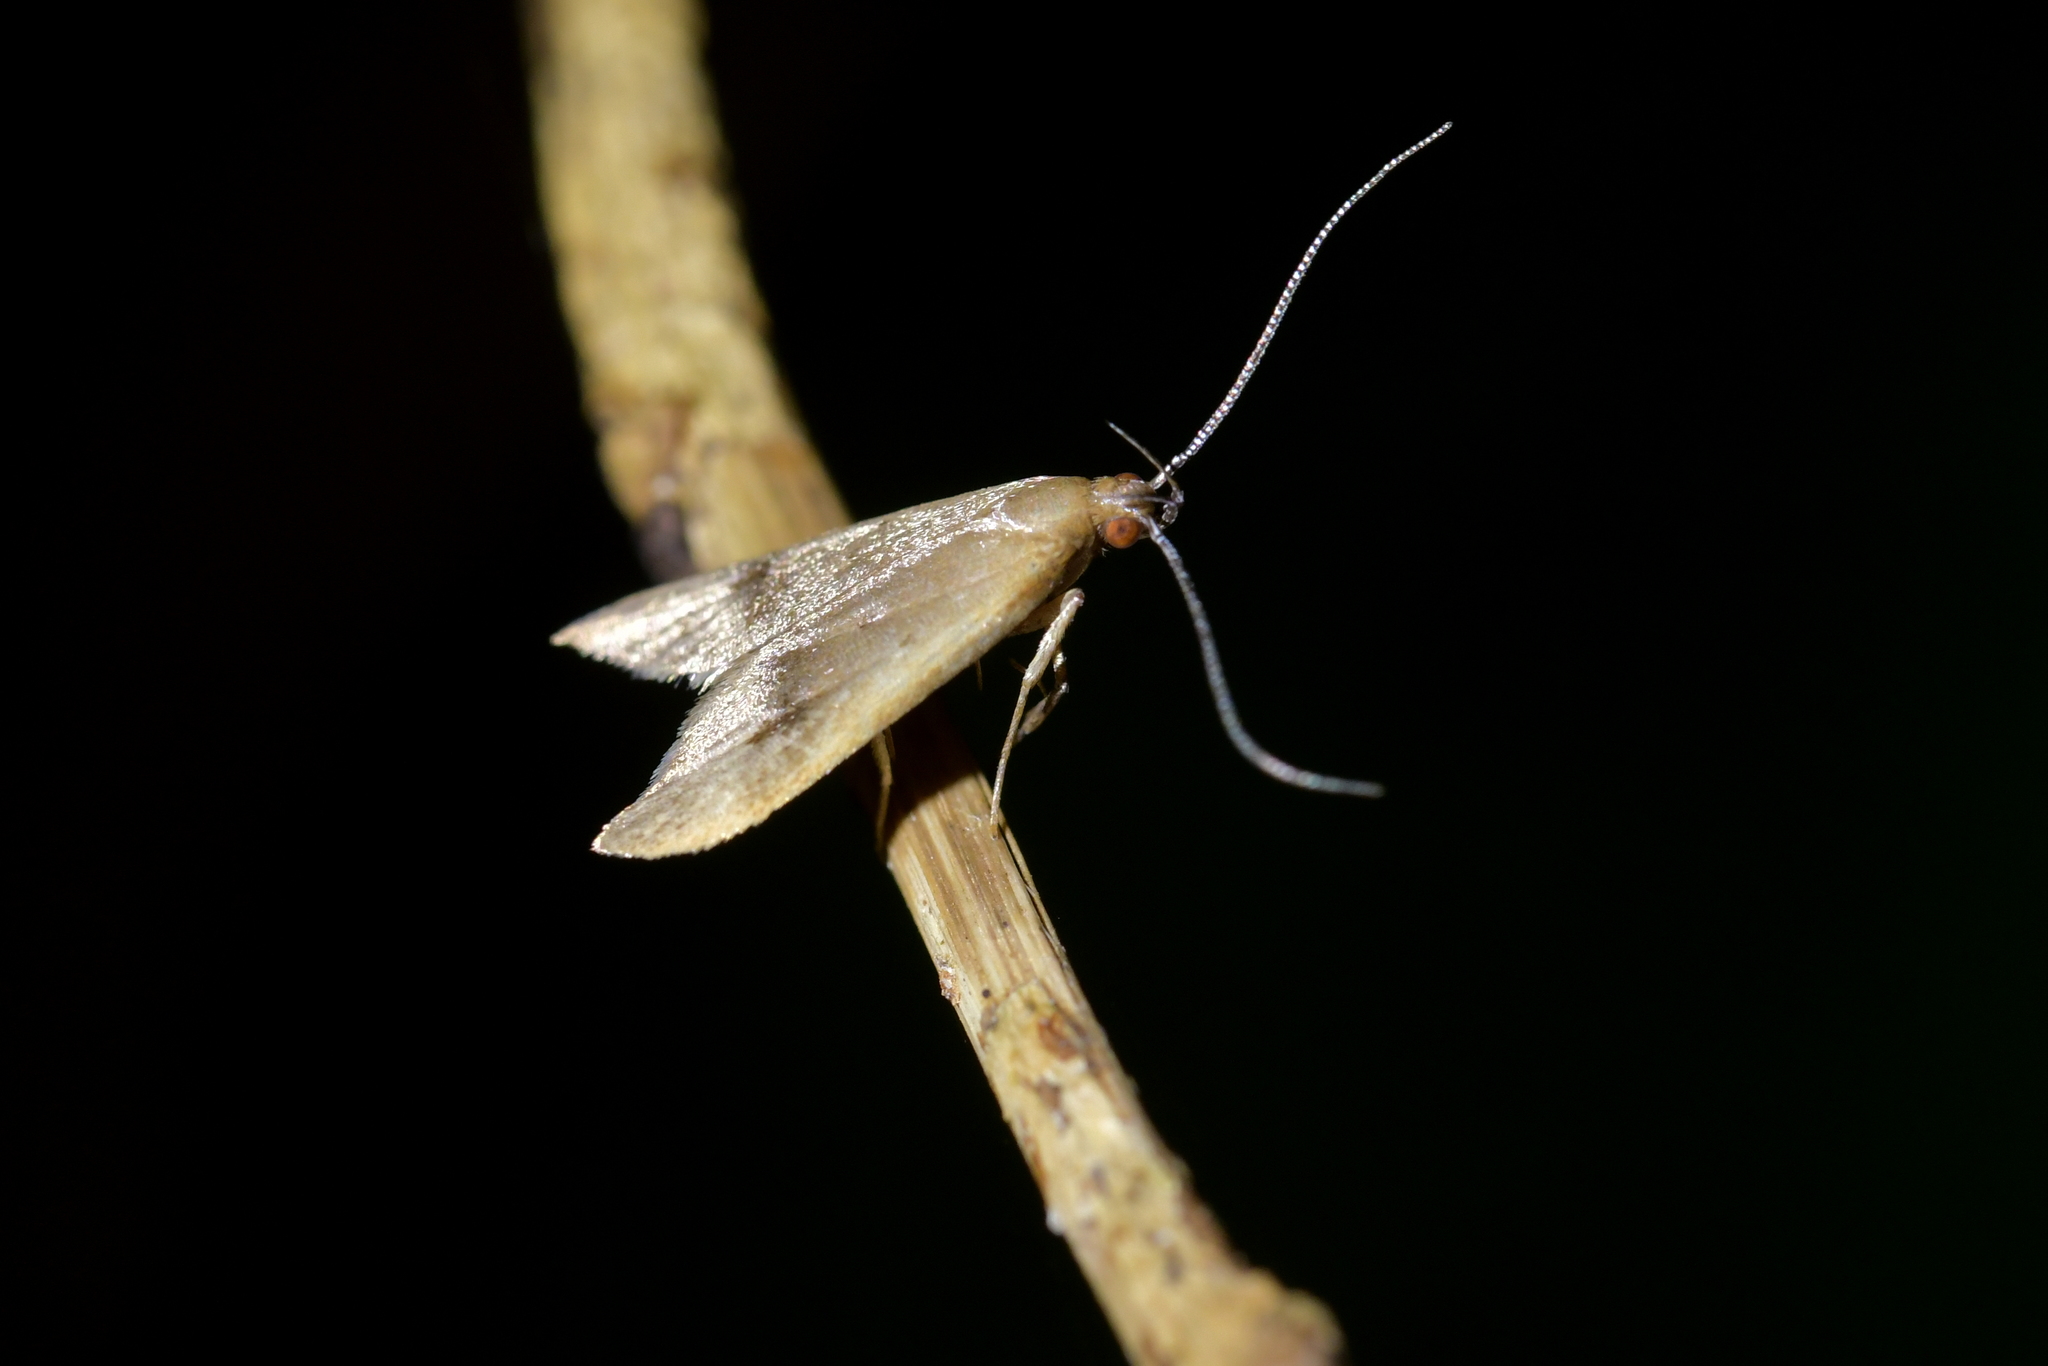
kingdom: Animalia
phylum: Arthropoda
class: Insecta
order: Lepidoptera
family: Oecophoridae
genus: Gymnobathra
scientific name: Gymnobathra hyetodes
